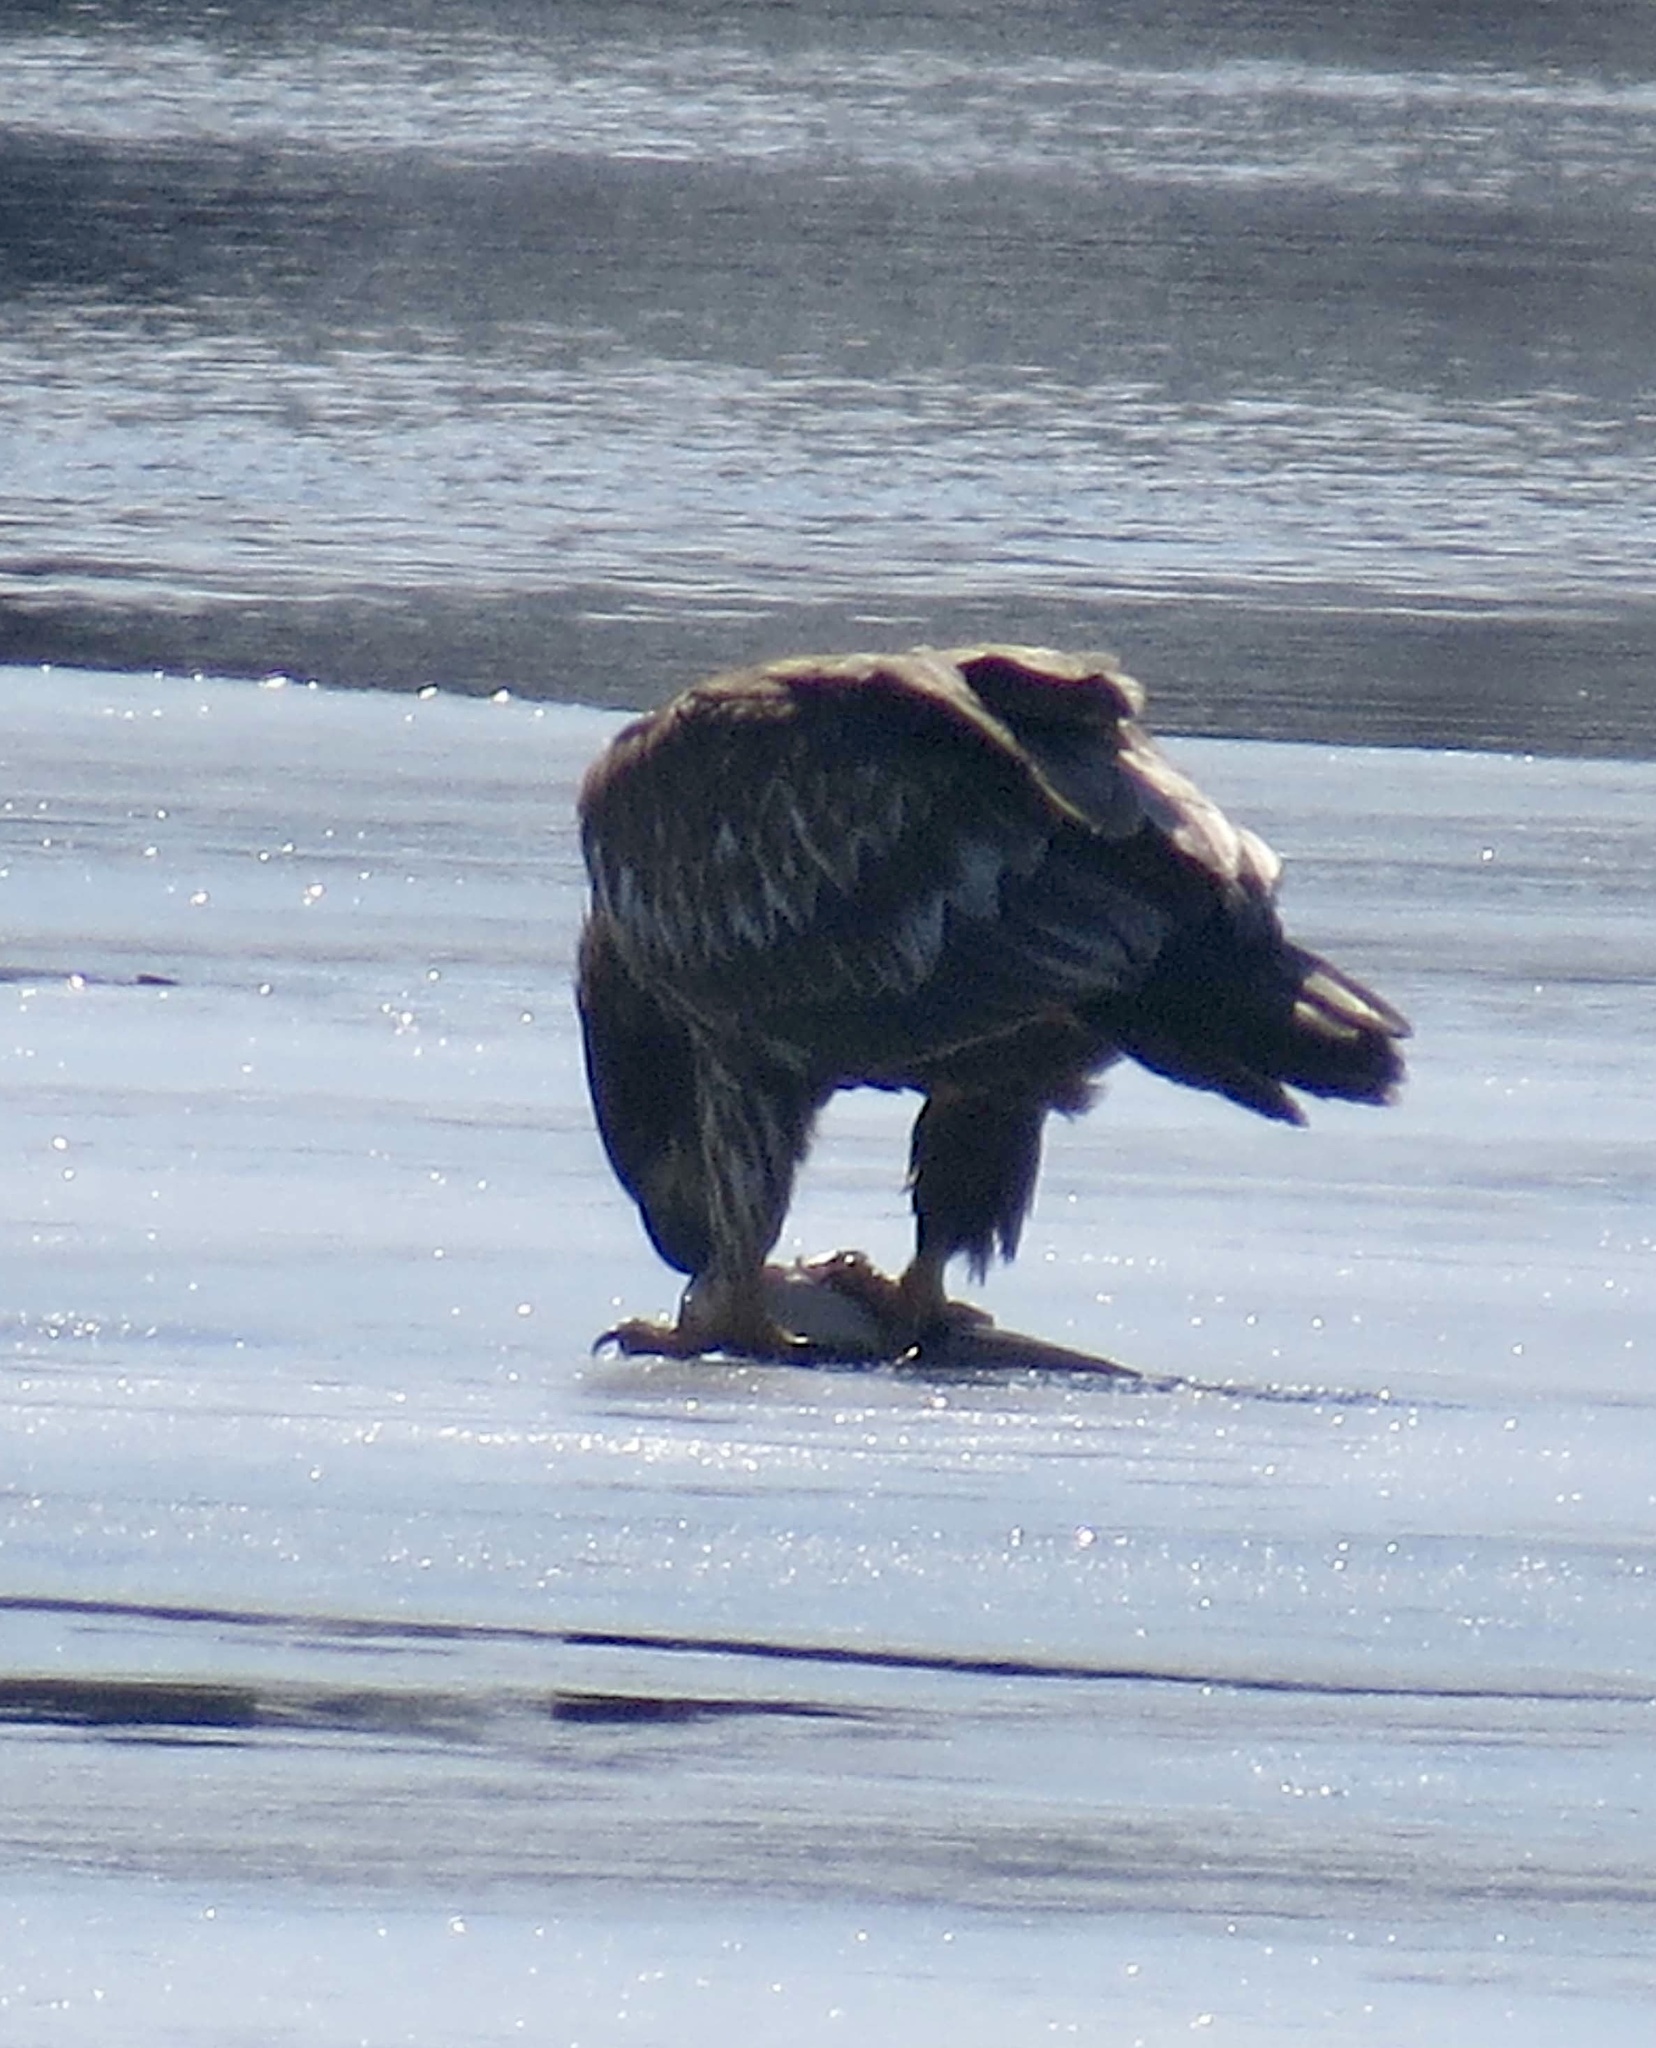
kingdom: Animalia
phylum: Chordata
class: Aves
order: Accipitriformes
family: Accipitridae
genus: Haliaeetus
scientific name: Haliaeetus leucocephalus
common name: Bald eagle
